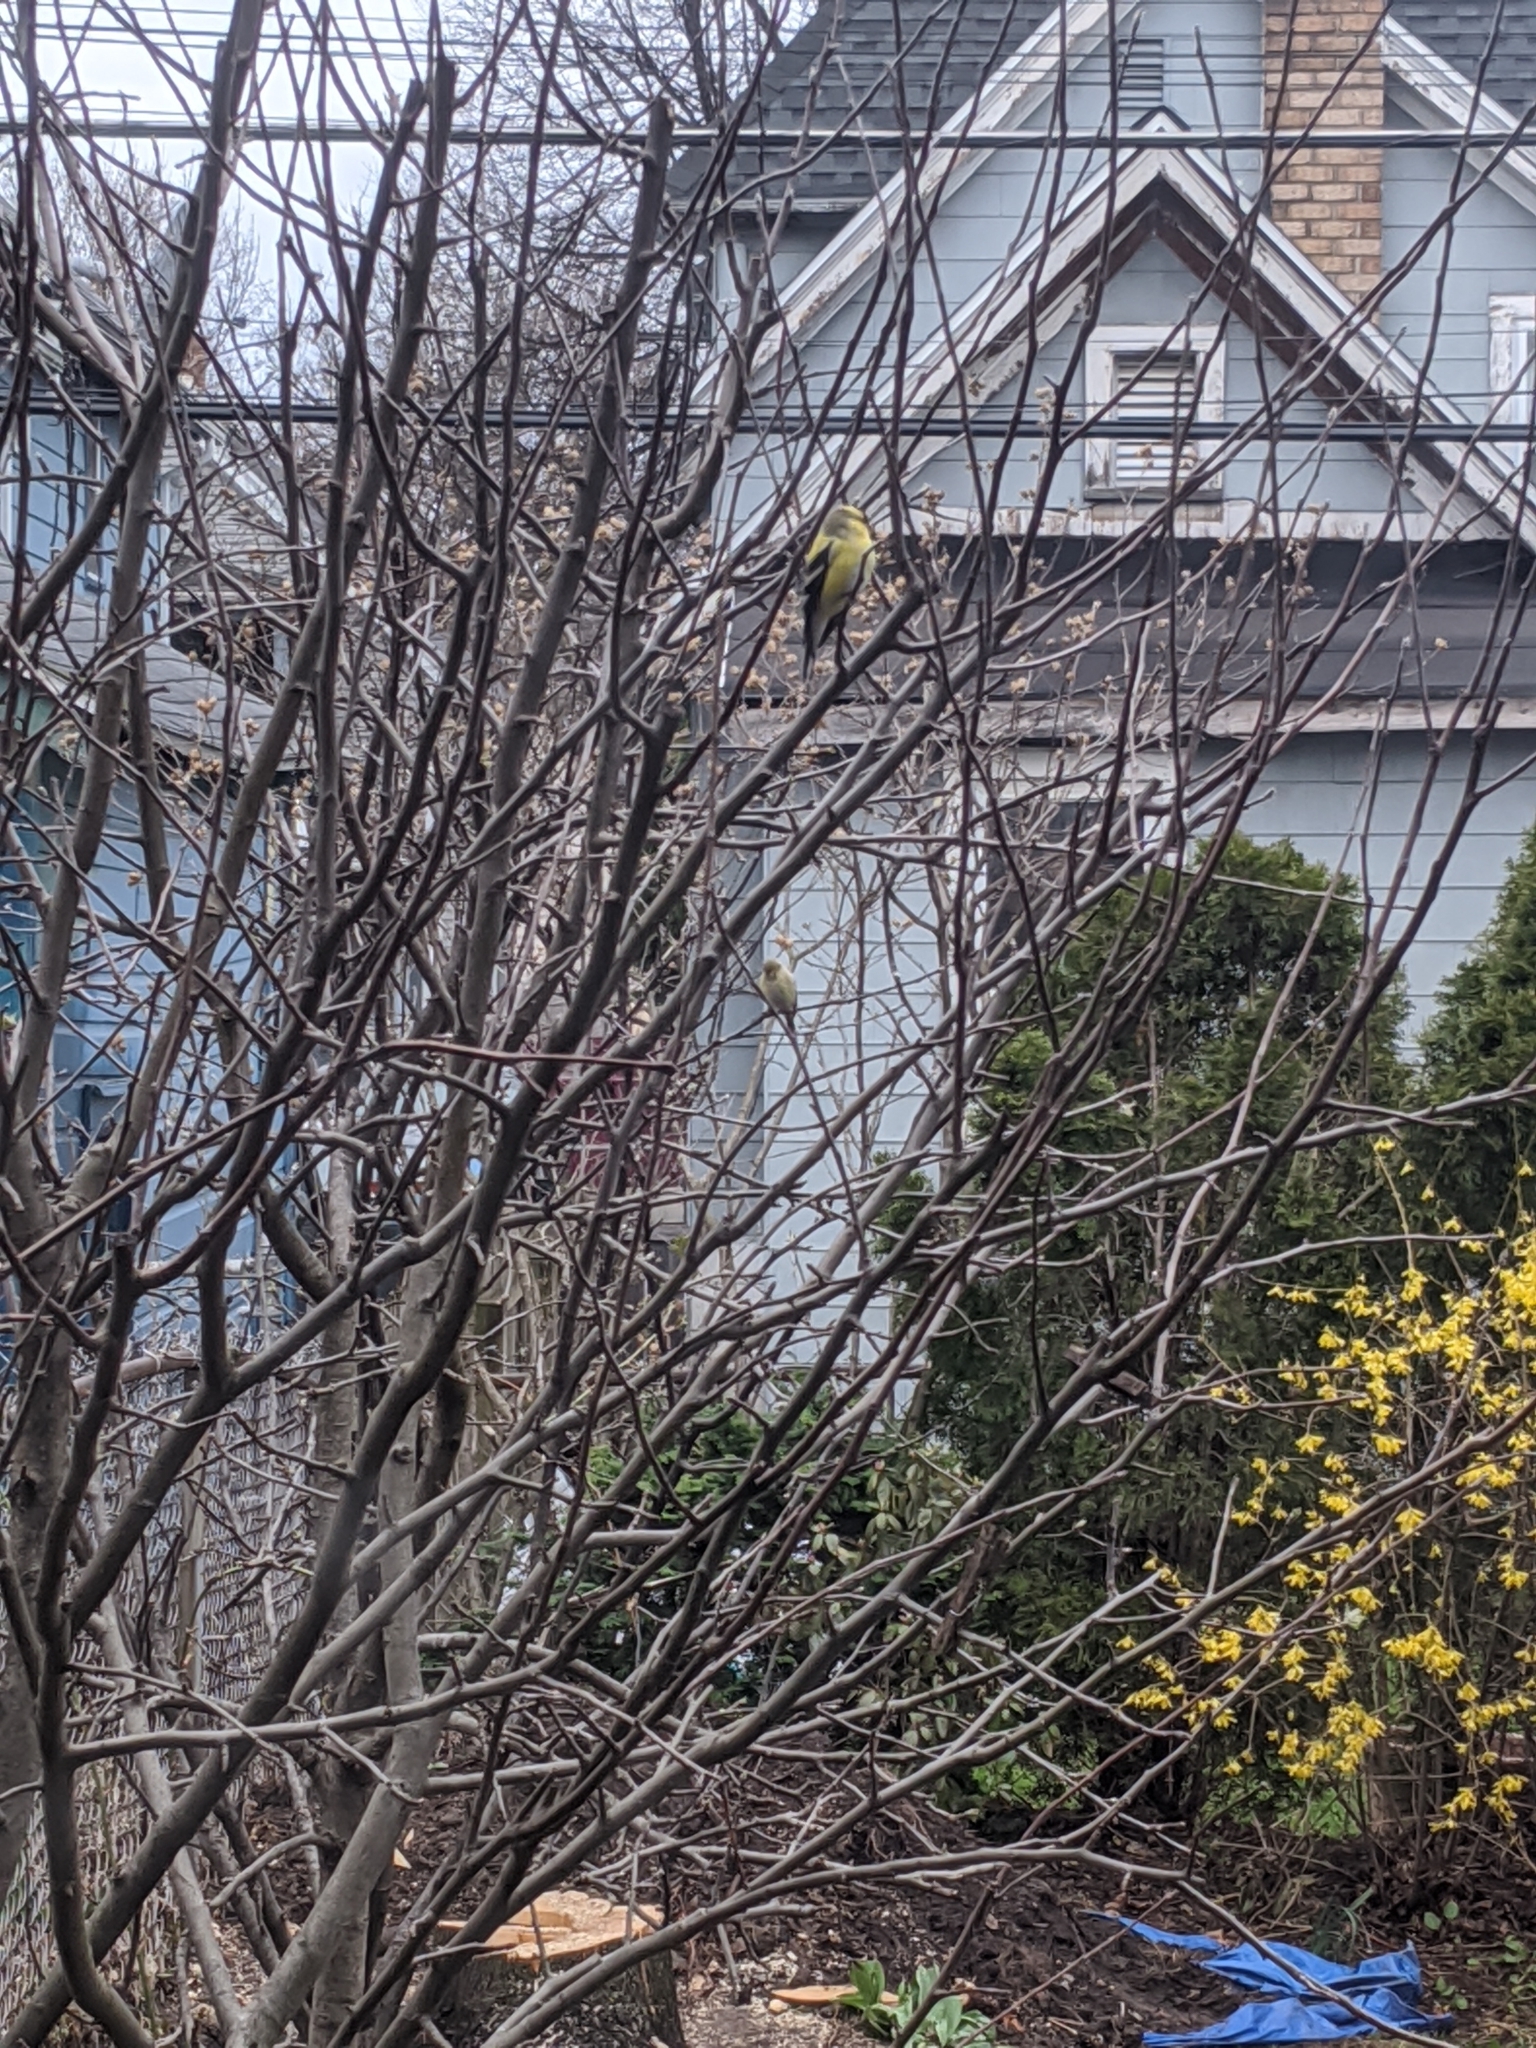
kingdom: Animalia
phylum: Chordata
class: Aves
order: Passeriformes
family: Fringillidae
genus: Spinus
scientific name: Spinus tristis
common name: American goldfinch
